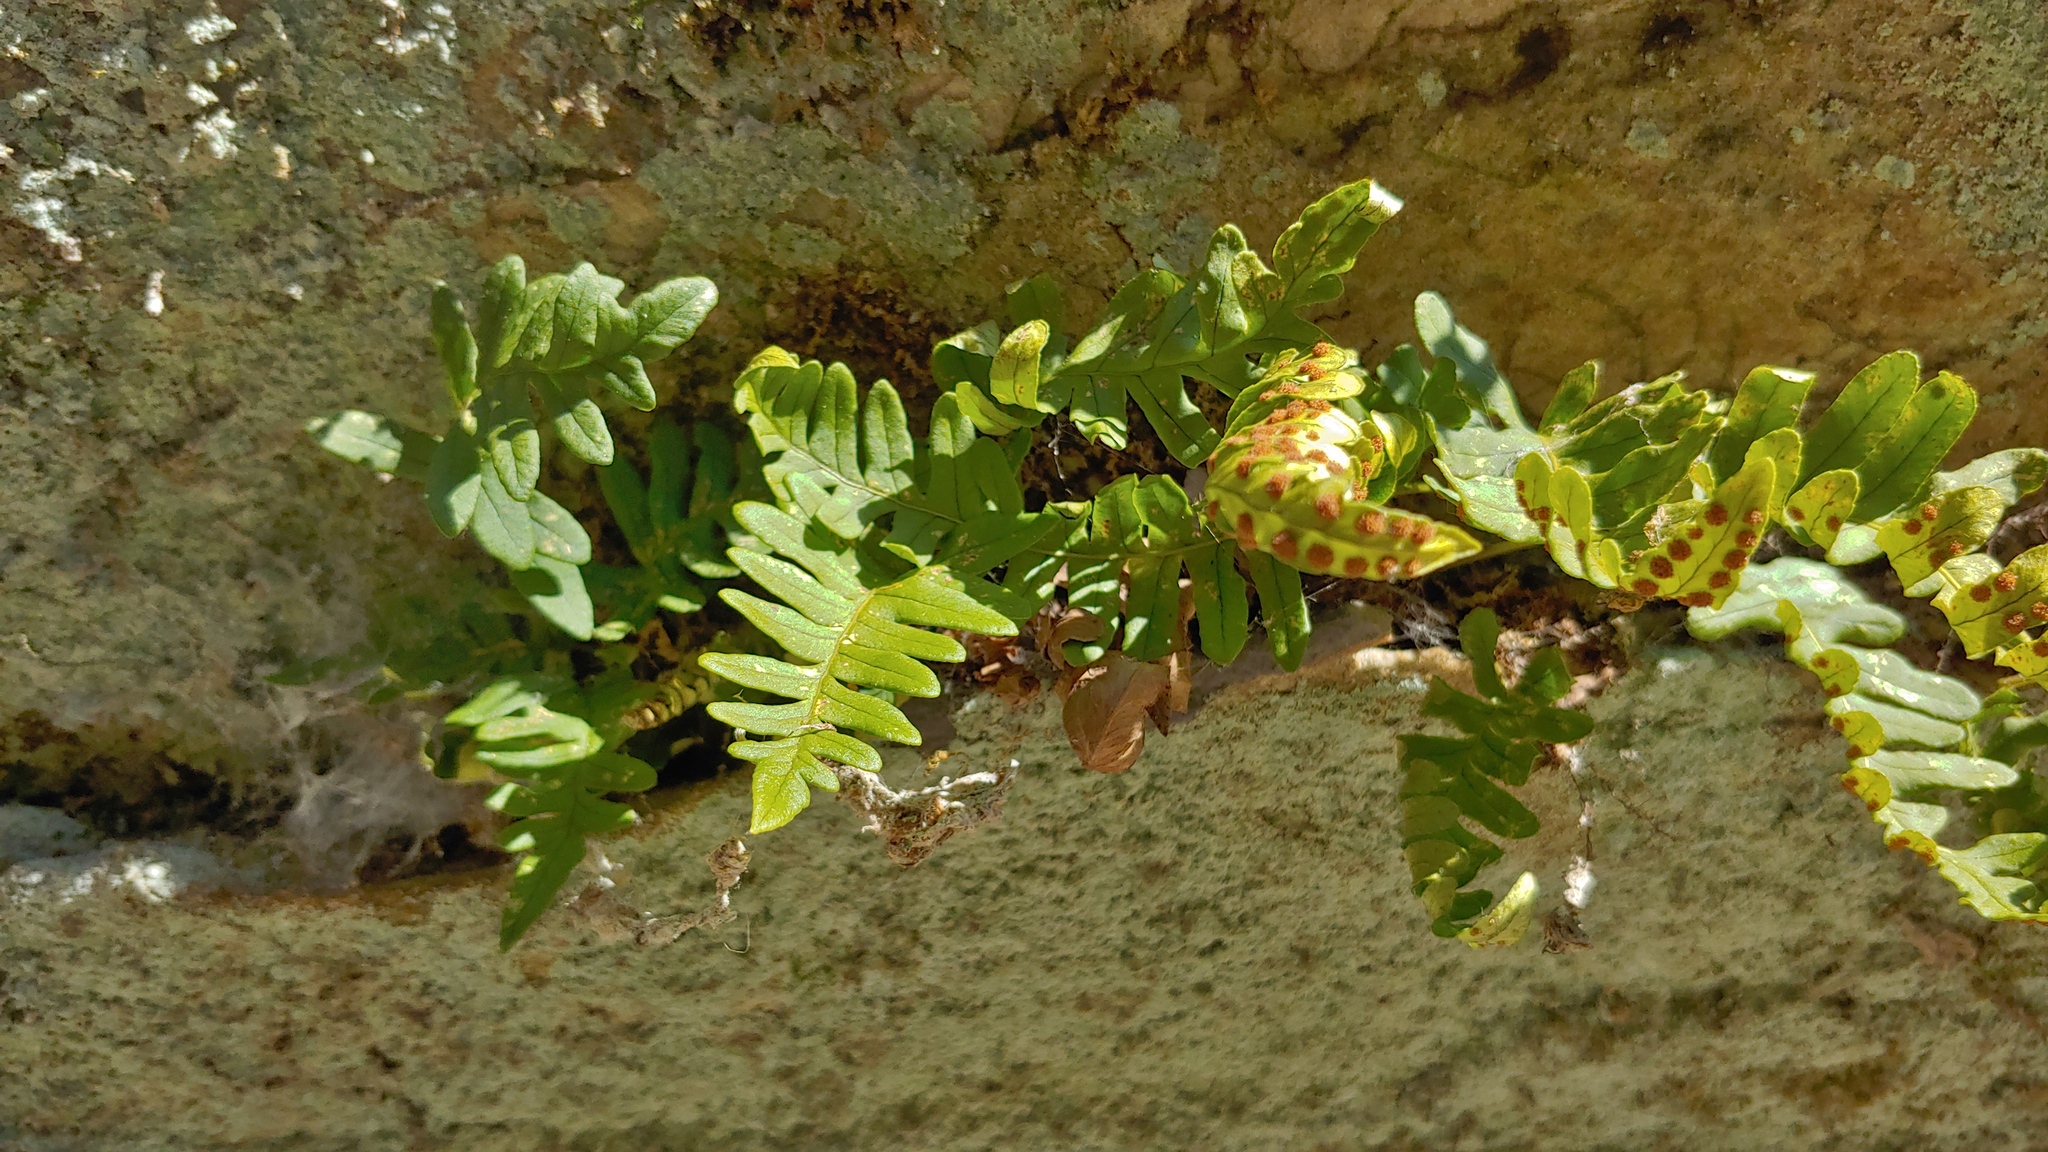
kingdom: Plantae
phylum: Tracheophyta
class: Polypodiopsida
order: Polypodiales
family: Polypodiaceae
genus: Polypodium
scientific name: Polypodium virginianum
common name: American wall fern
